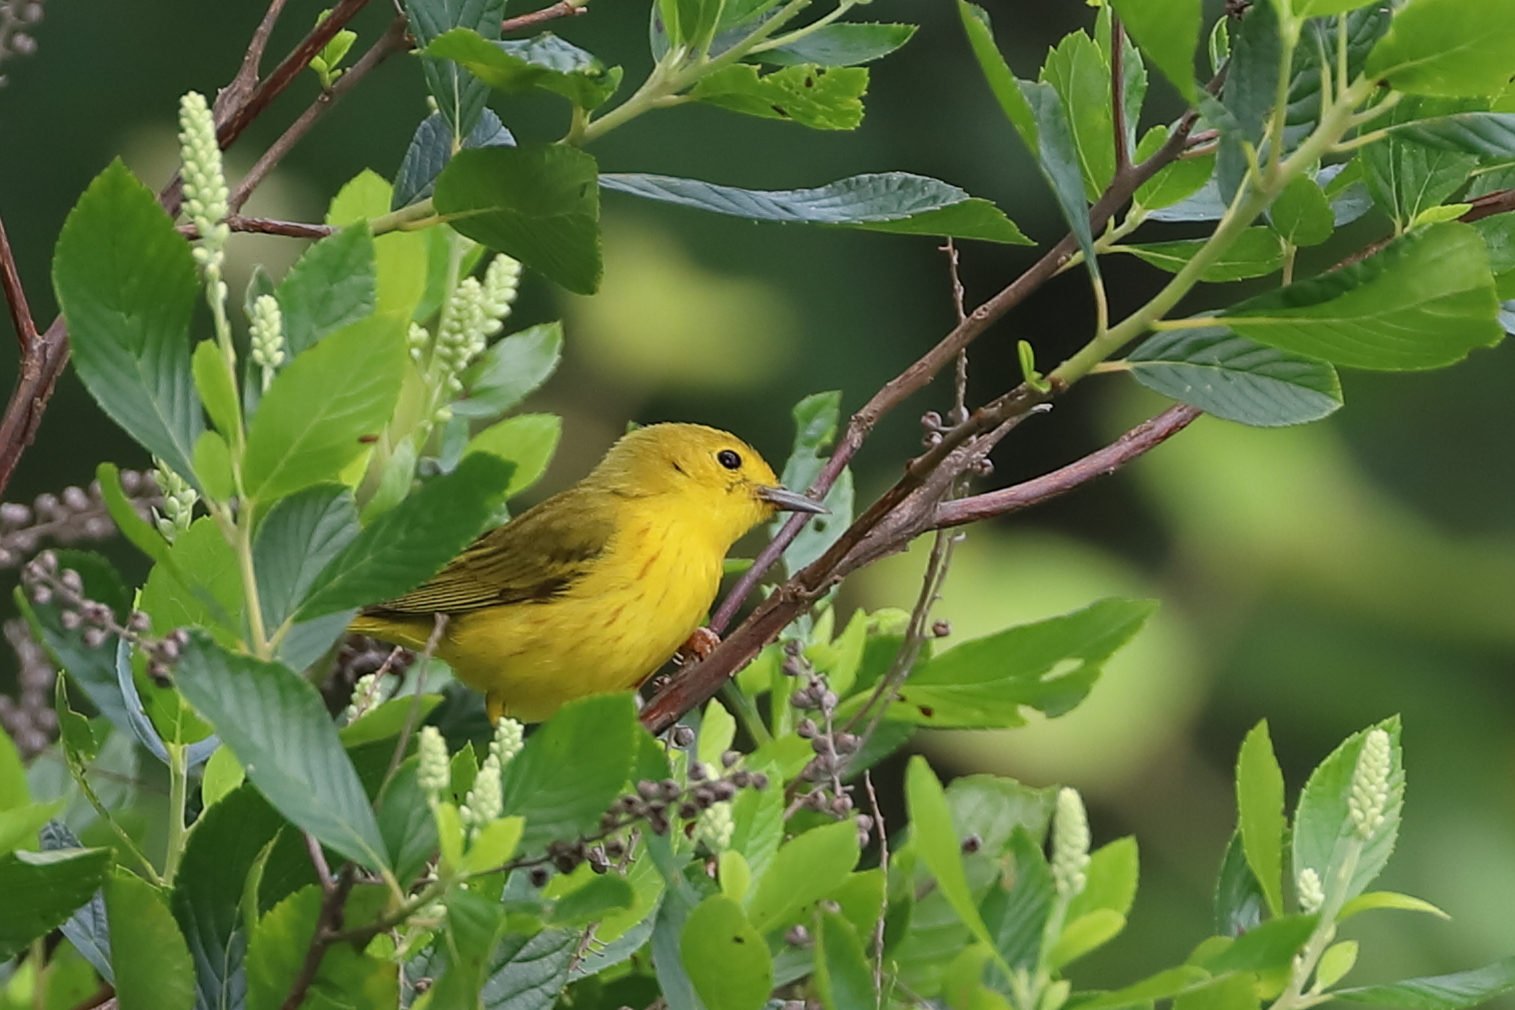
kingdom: Animalia
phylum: Chordata
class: Aves
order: Passeriformes
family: Parulidae
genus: Setophaga
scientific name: Setophaga petechia
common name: Yellow warbler
